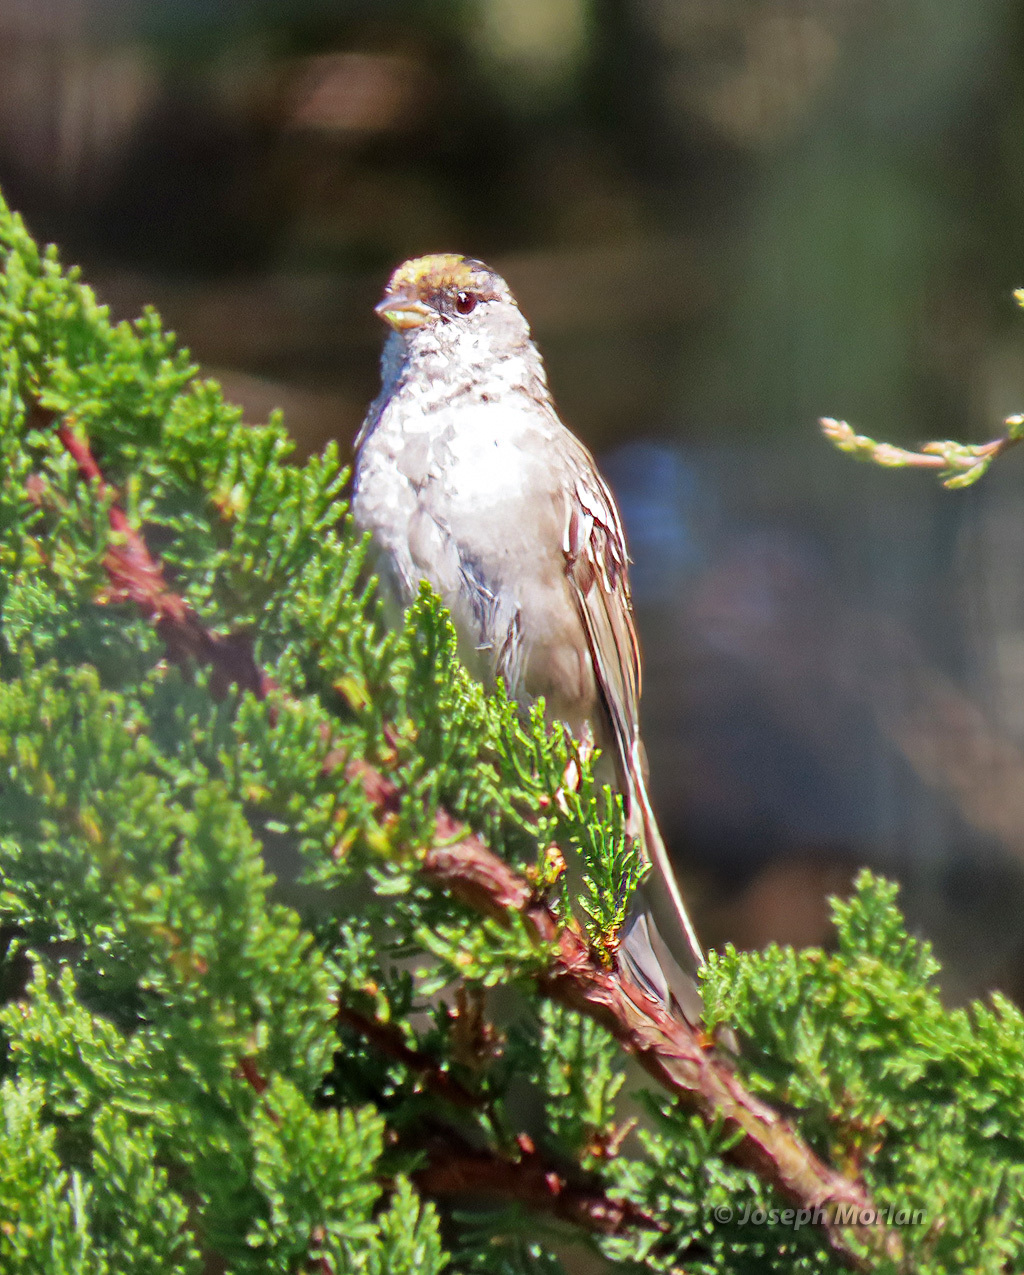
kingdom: Animalia
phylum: Chordata
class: Aves
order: Passeriformes
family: Passerellidae
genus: Zonotrichia
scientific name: Zonotrichia atricapilla
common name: Golden-crowned sparrow
